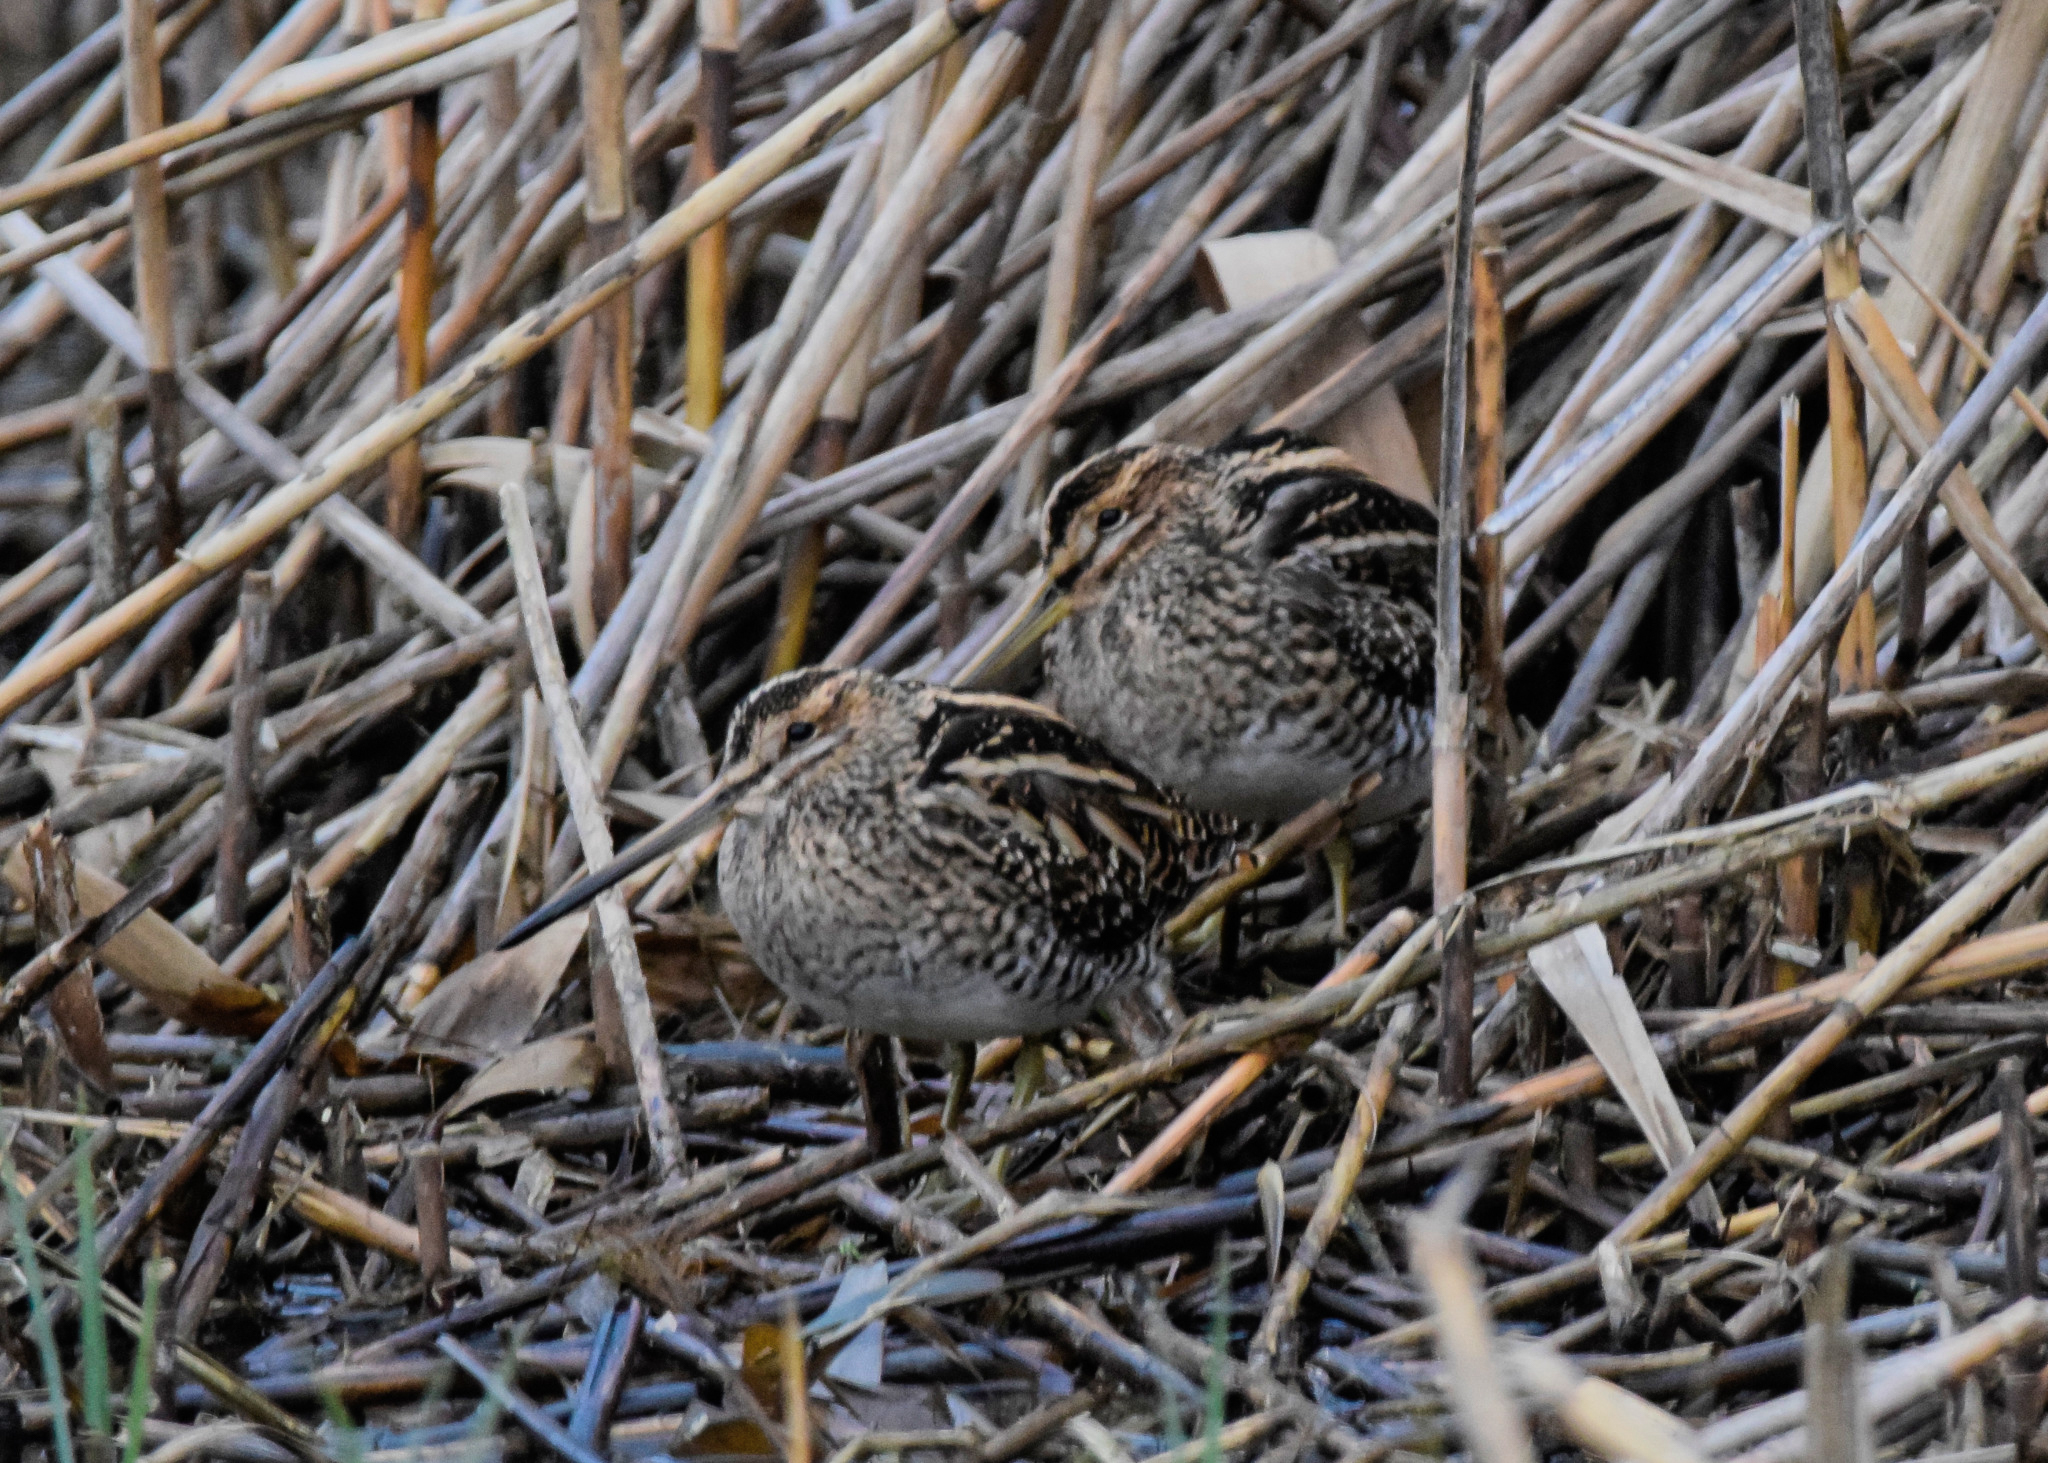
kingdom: Animalia
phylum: Chordata
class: Aves
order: Charadriiformes
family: Scolopacidae
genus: Gallinago
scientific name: Gallinago gallinago
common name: Common snipe
